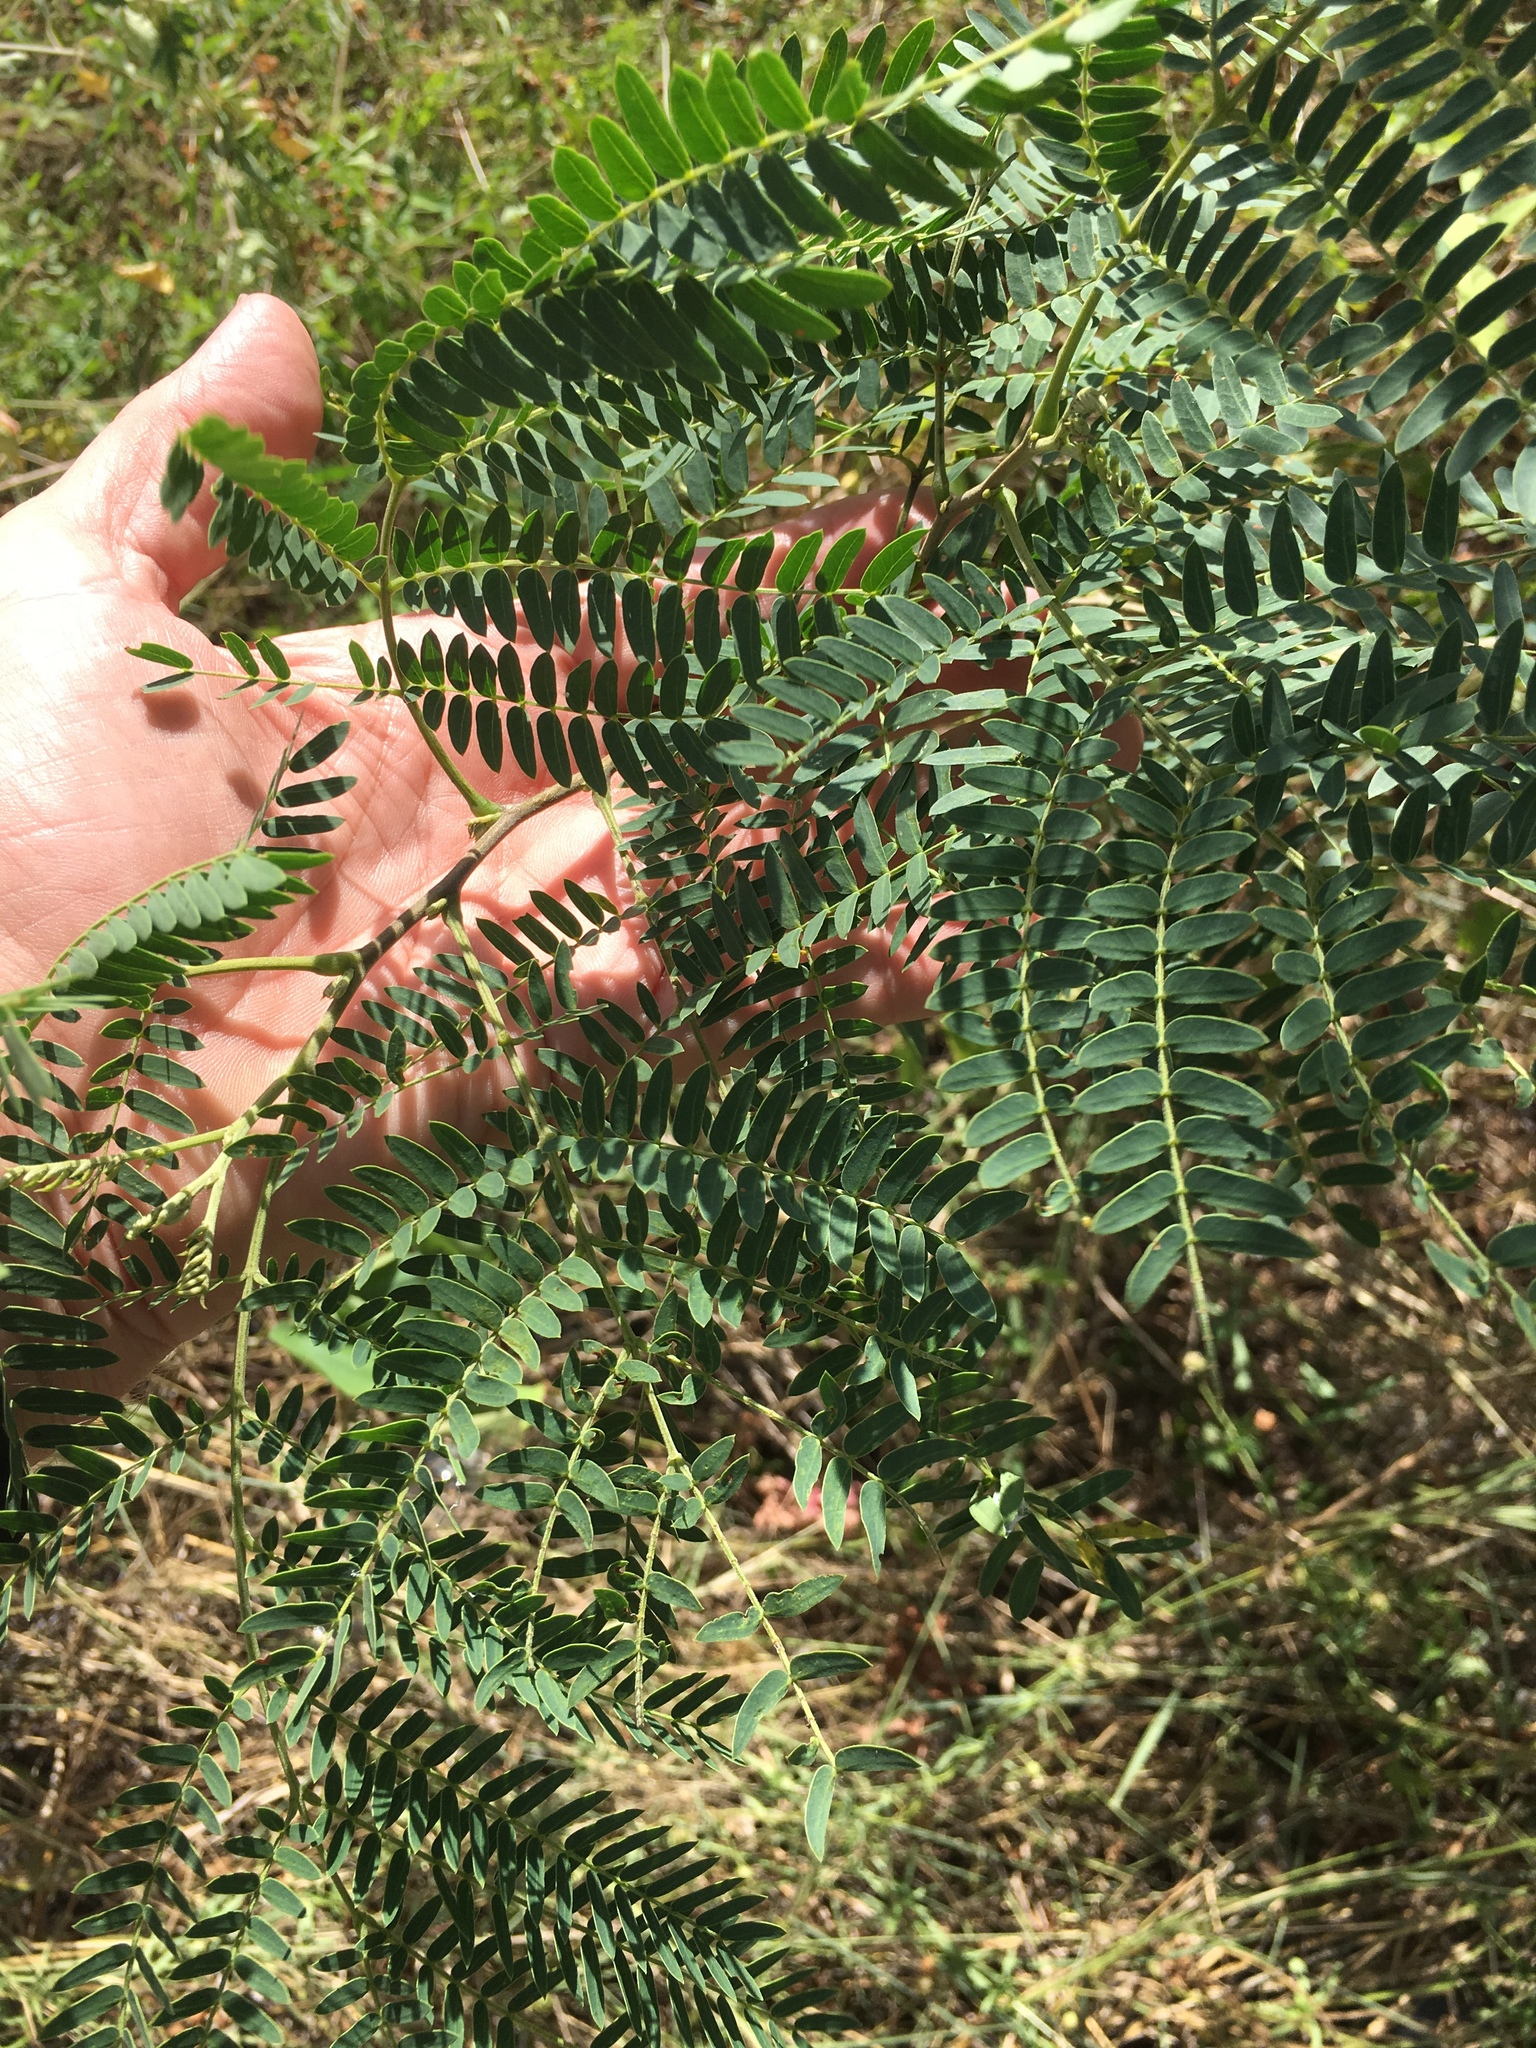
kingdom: Plantae
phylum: Tracheophyta
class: Magnoliopsida
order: Fabales
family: Fabaceae
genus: Leucaena
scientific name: Leucaena leucocephala
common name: White leadtree
